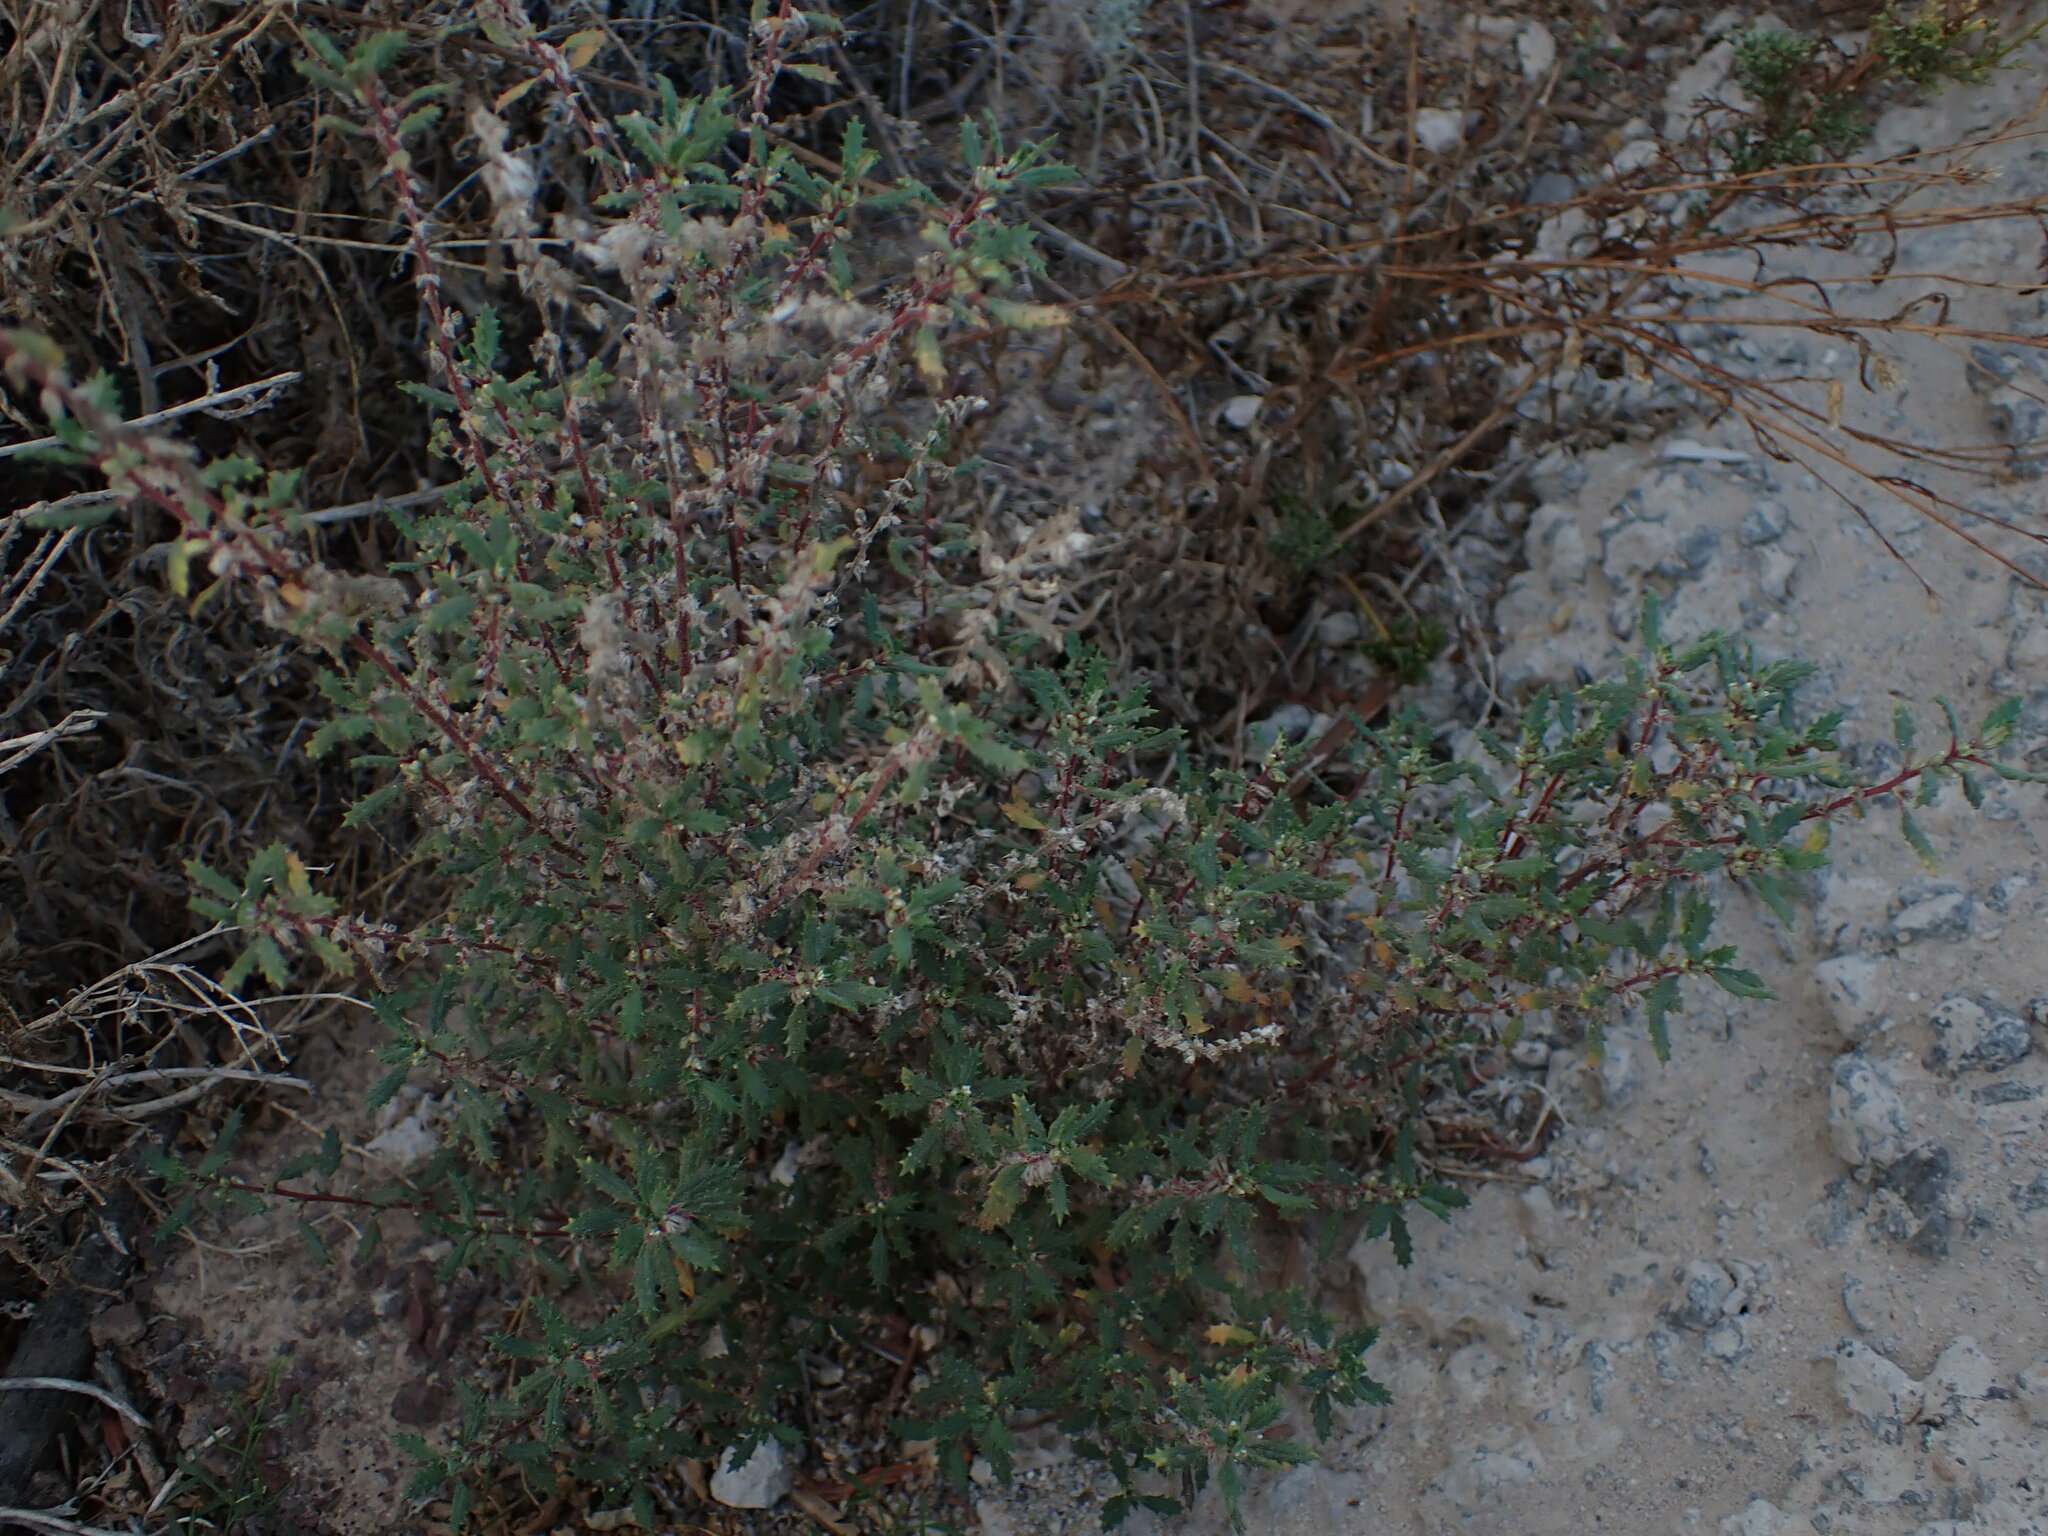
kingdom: Plantae
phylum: Tracheophyta
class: Magnoliopsida
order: Rosales
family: Urticaceae
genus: Forsskaolea
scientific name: Forsskaolea angustifolia
